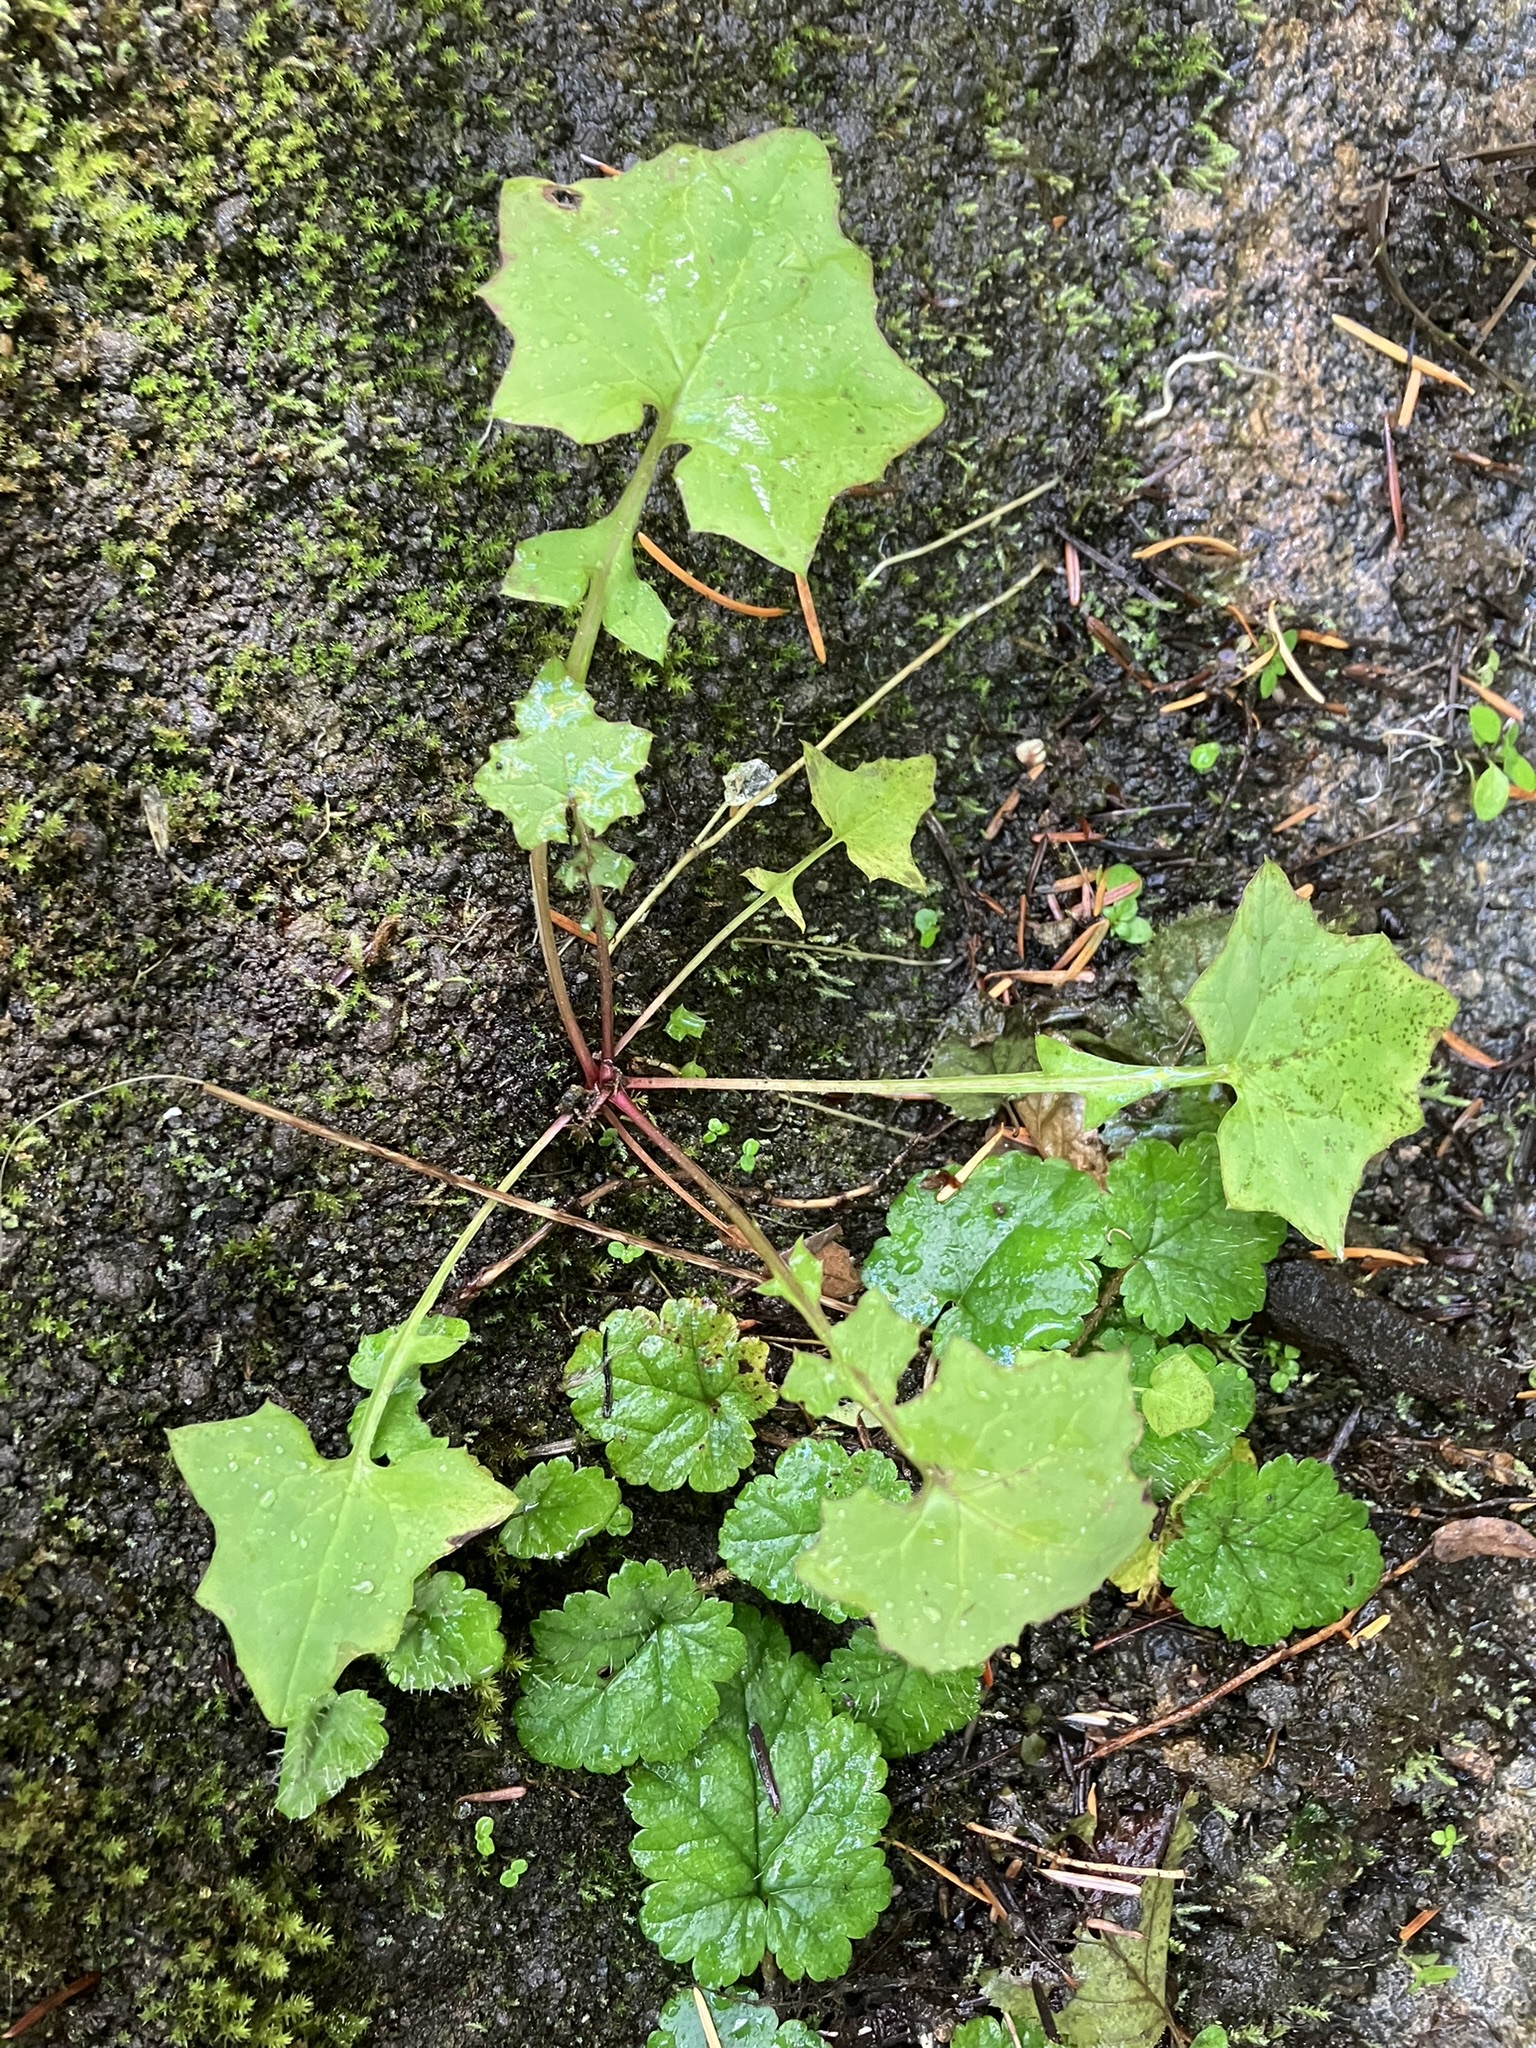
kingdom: Plantae
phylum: Tracheophyta
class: Magnoliopsida
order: Asterales
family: Asteraceae
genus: Mycelis
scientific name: Mycelis muralis
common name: Wall lettuce
